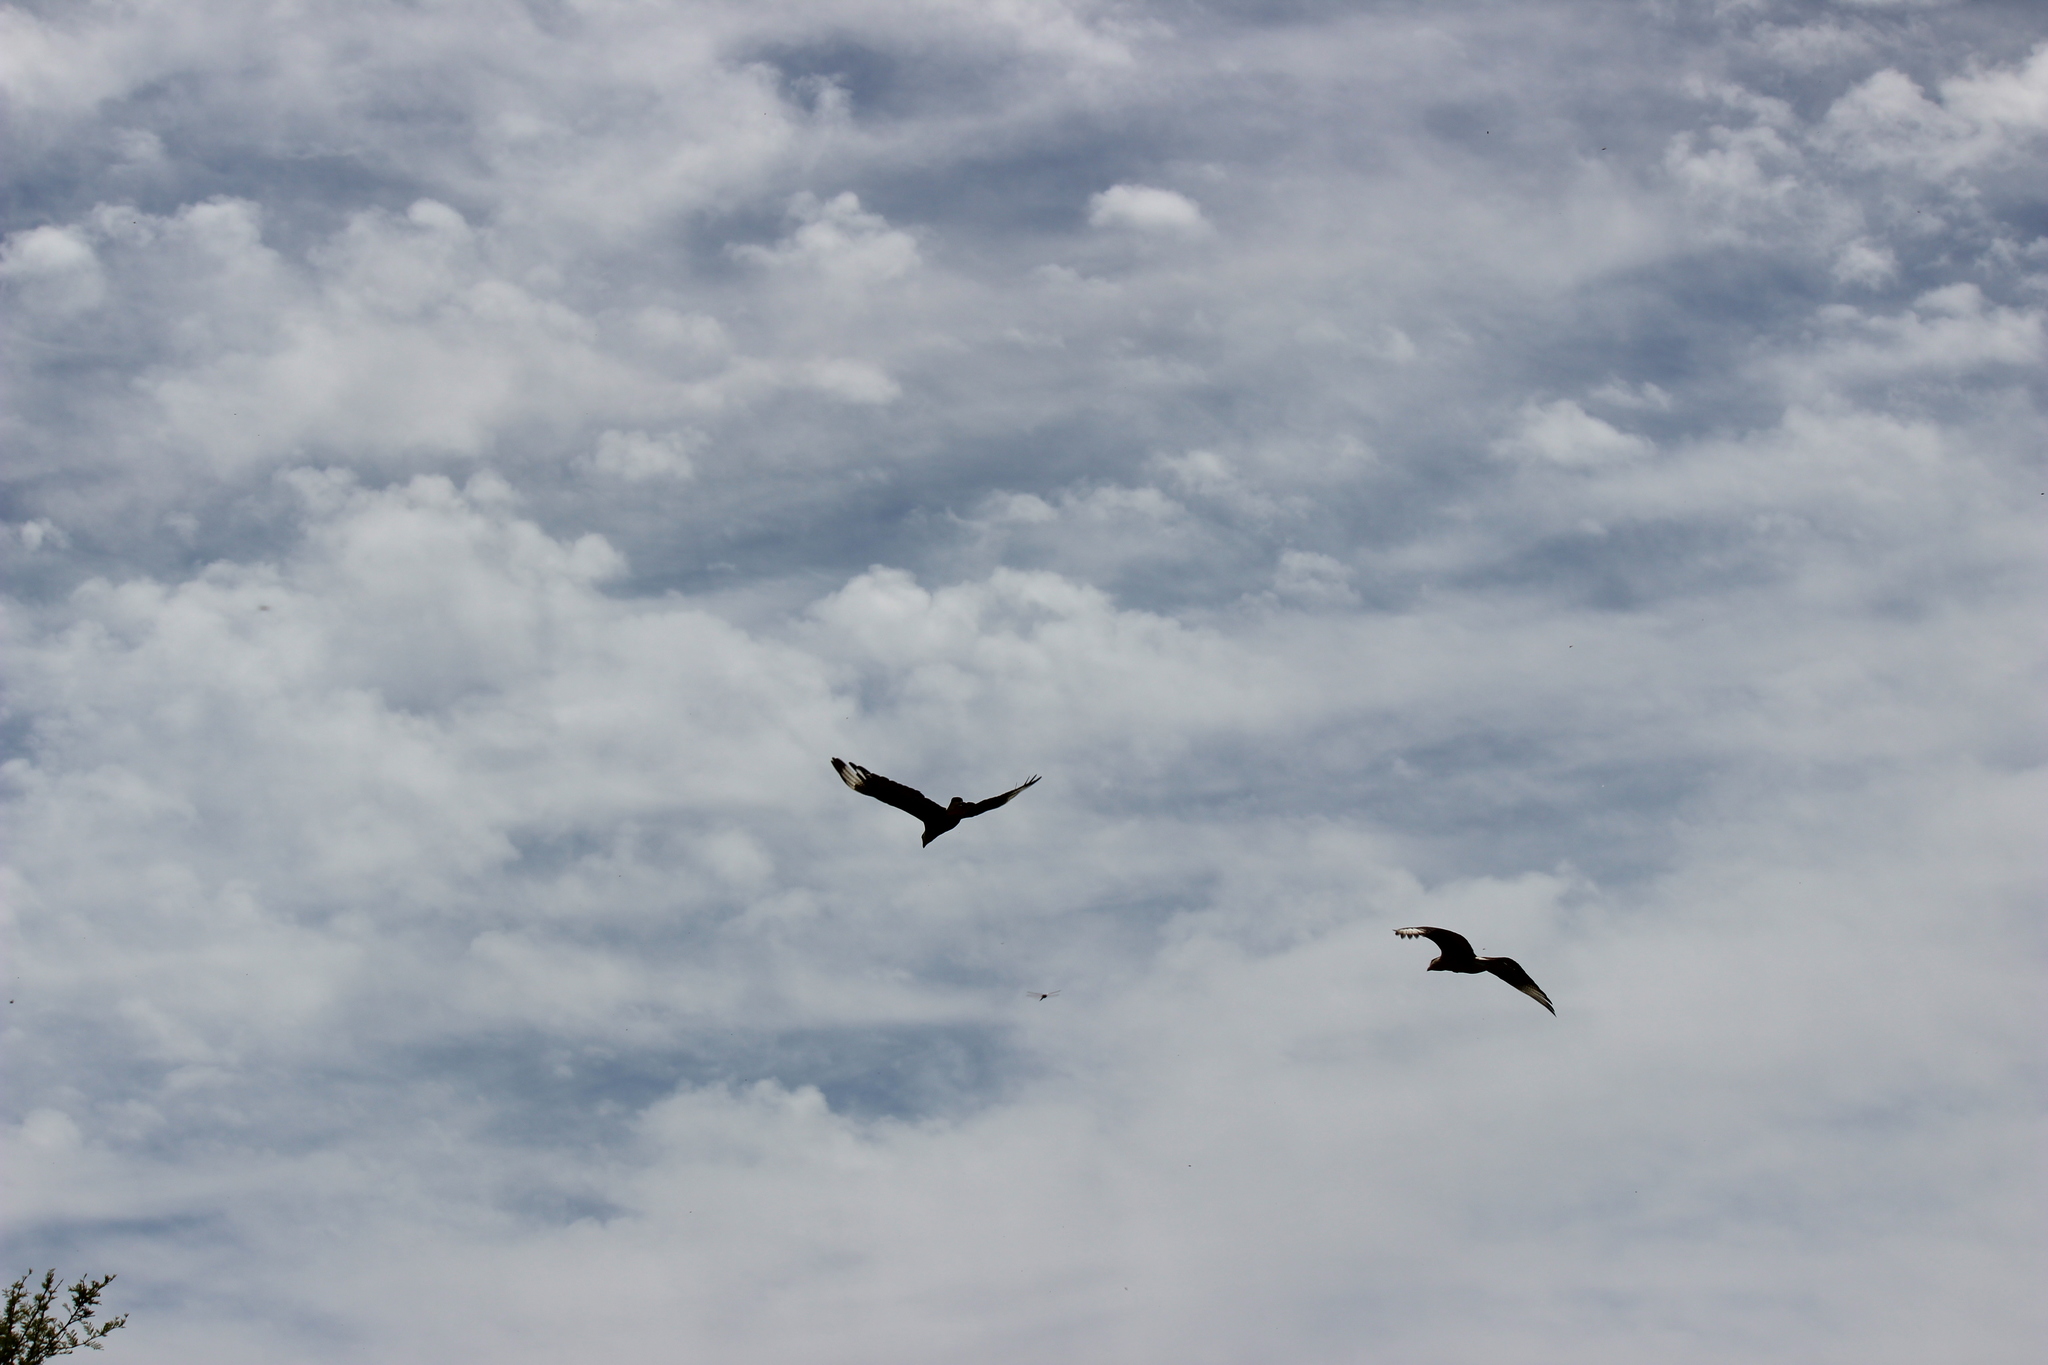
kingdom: Animalia
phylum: Chordata
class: Aves
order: Falconiformes
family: Falconidae
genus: Caracara
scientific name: Caracara plancus
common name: Southern caracara
